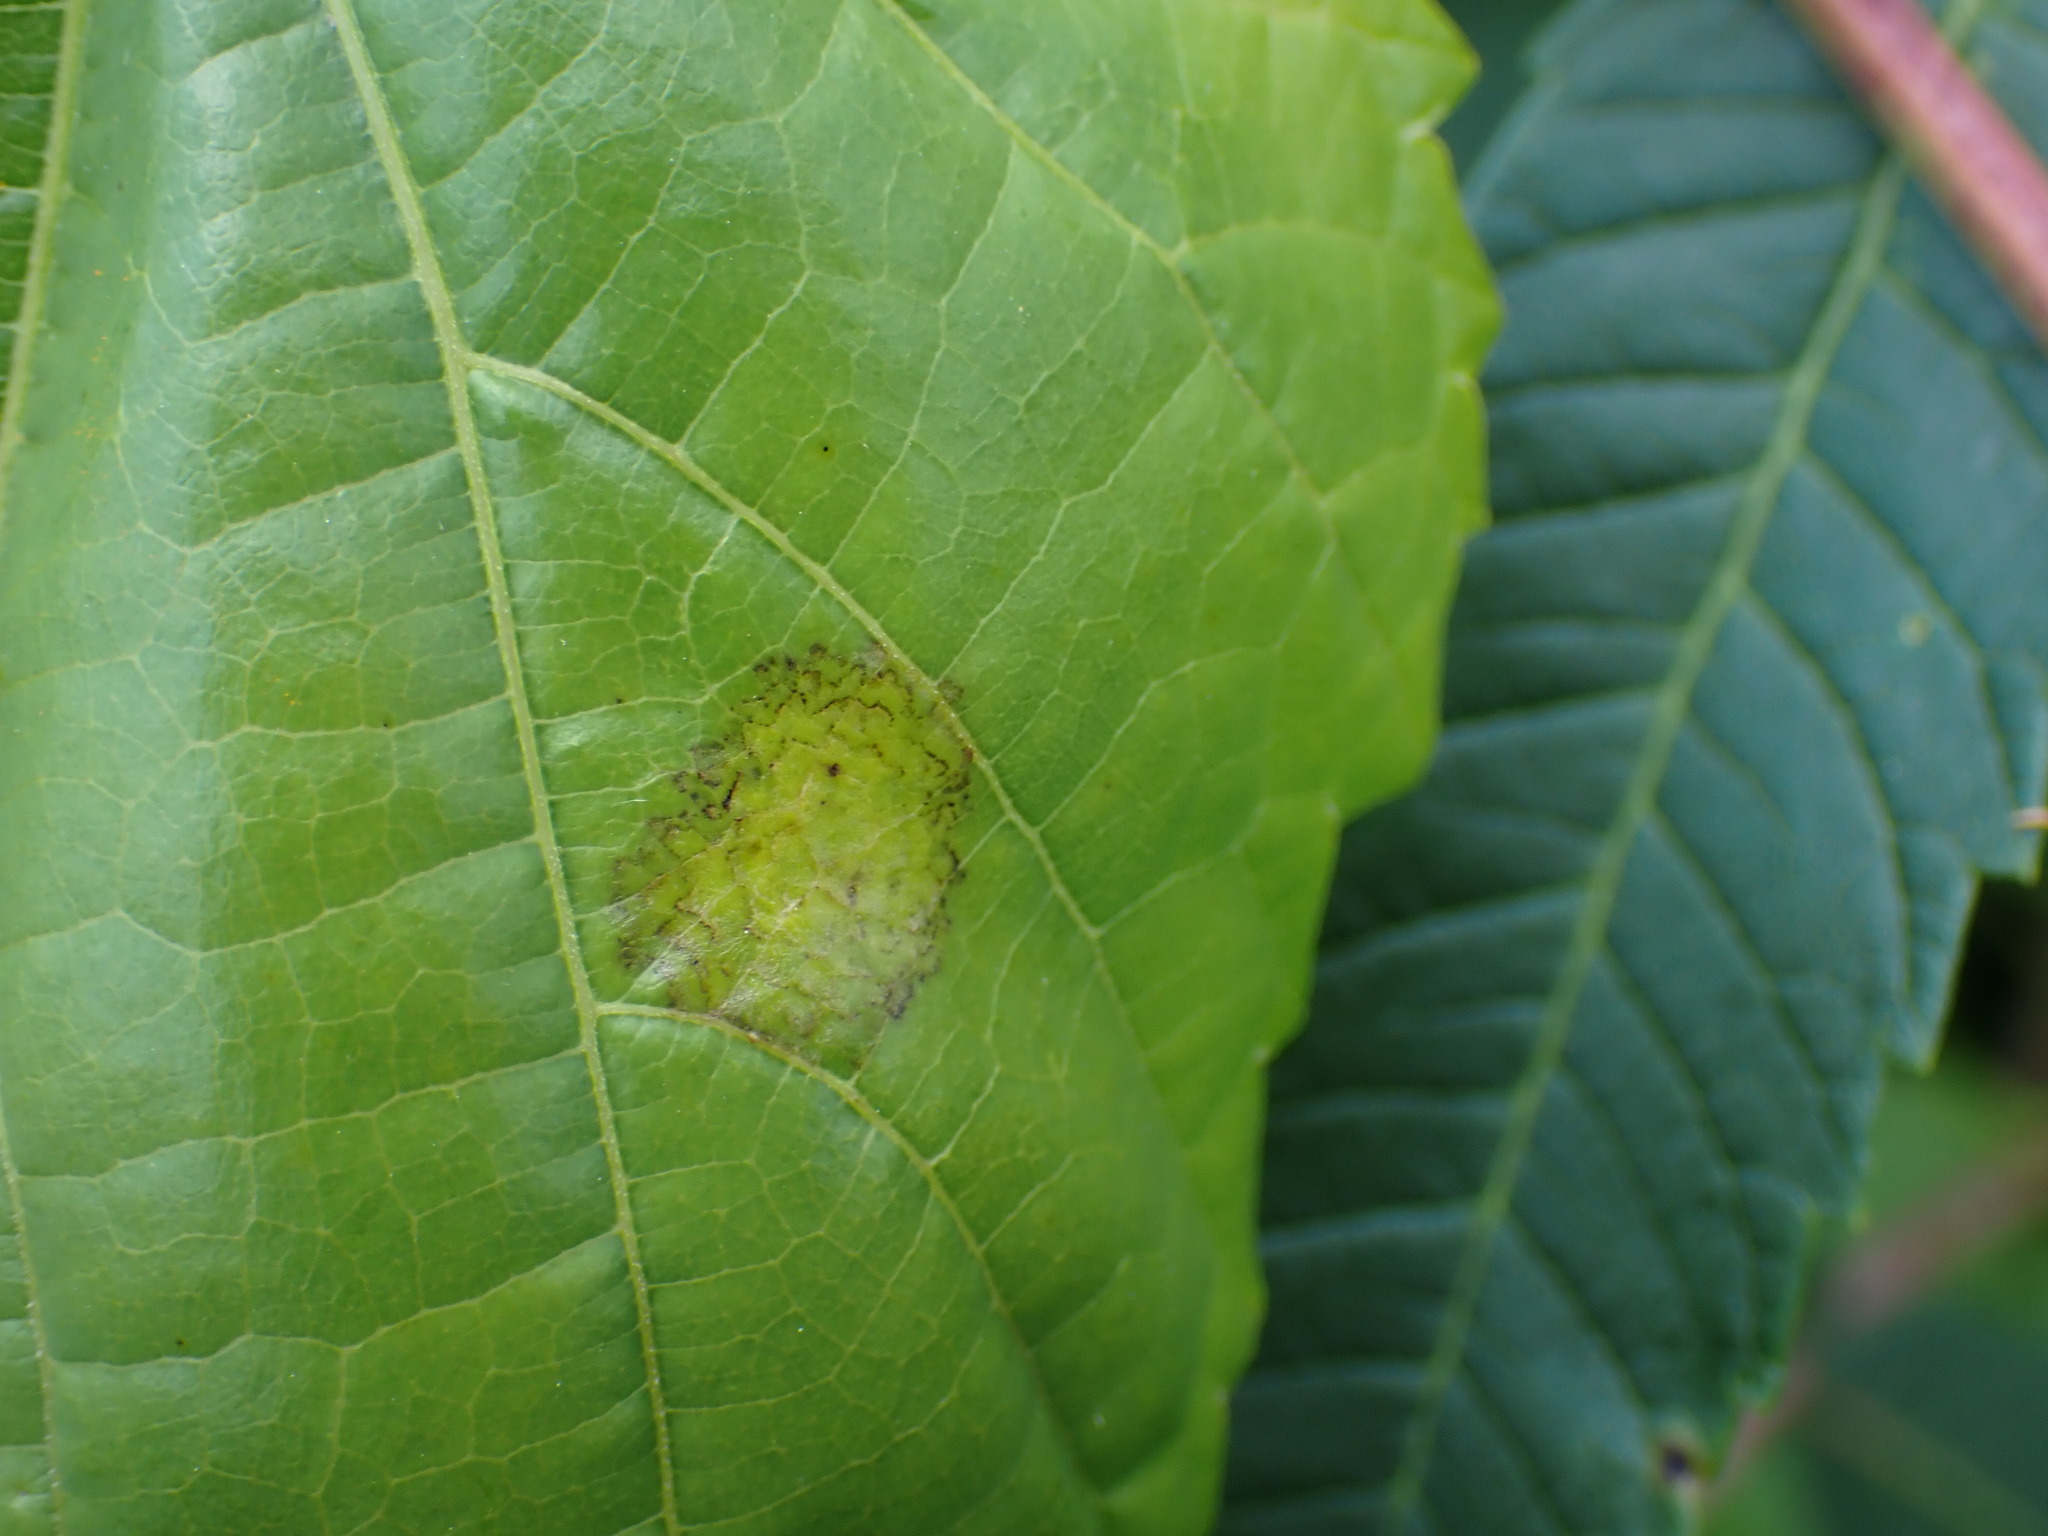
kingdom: Chromista
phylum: Oomycota
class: Peronosporea
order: Peronosporales
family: Peronosporaceae
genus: Plasmopara
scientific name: Plasmopara viticola
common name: Grapevine downy mildew
